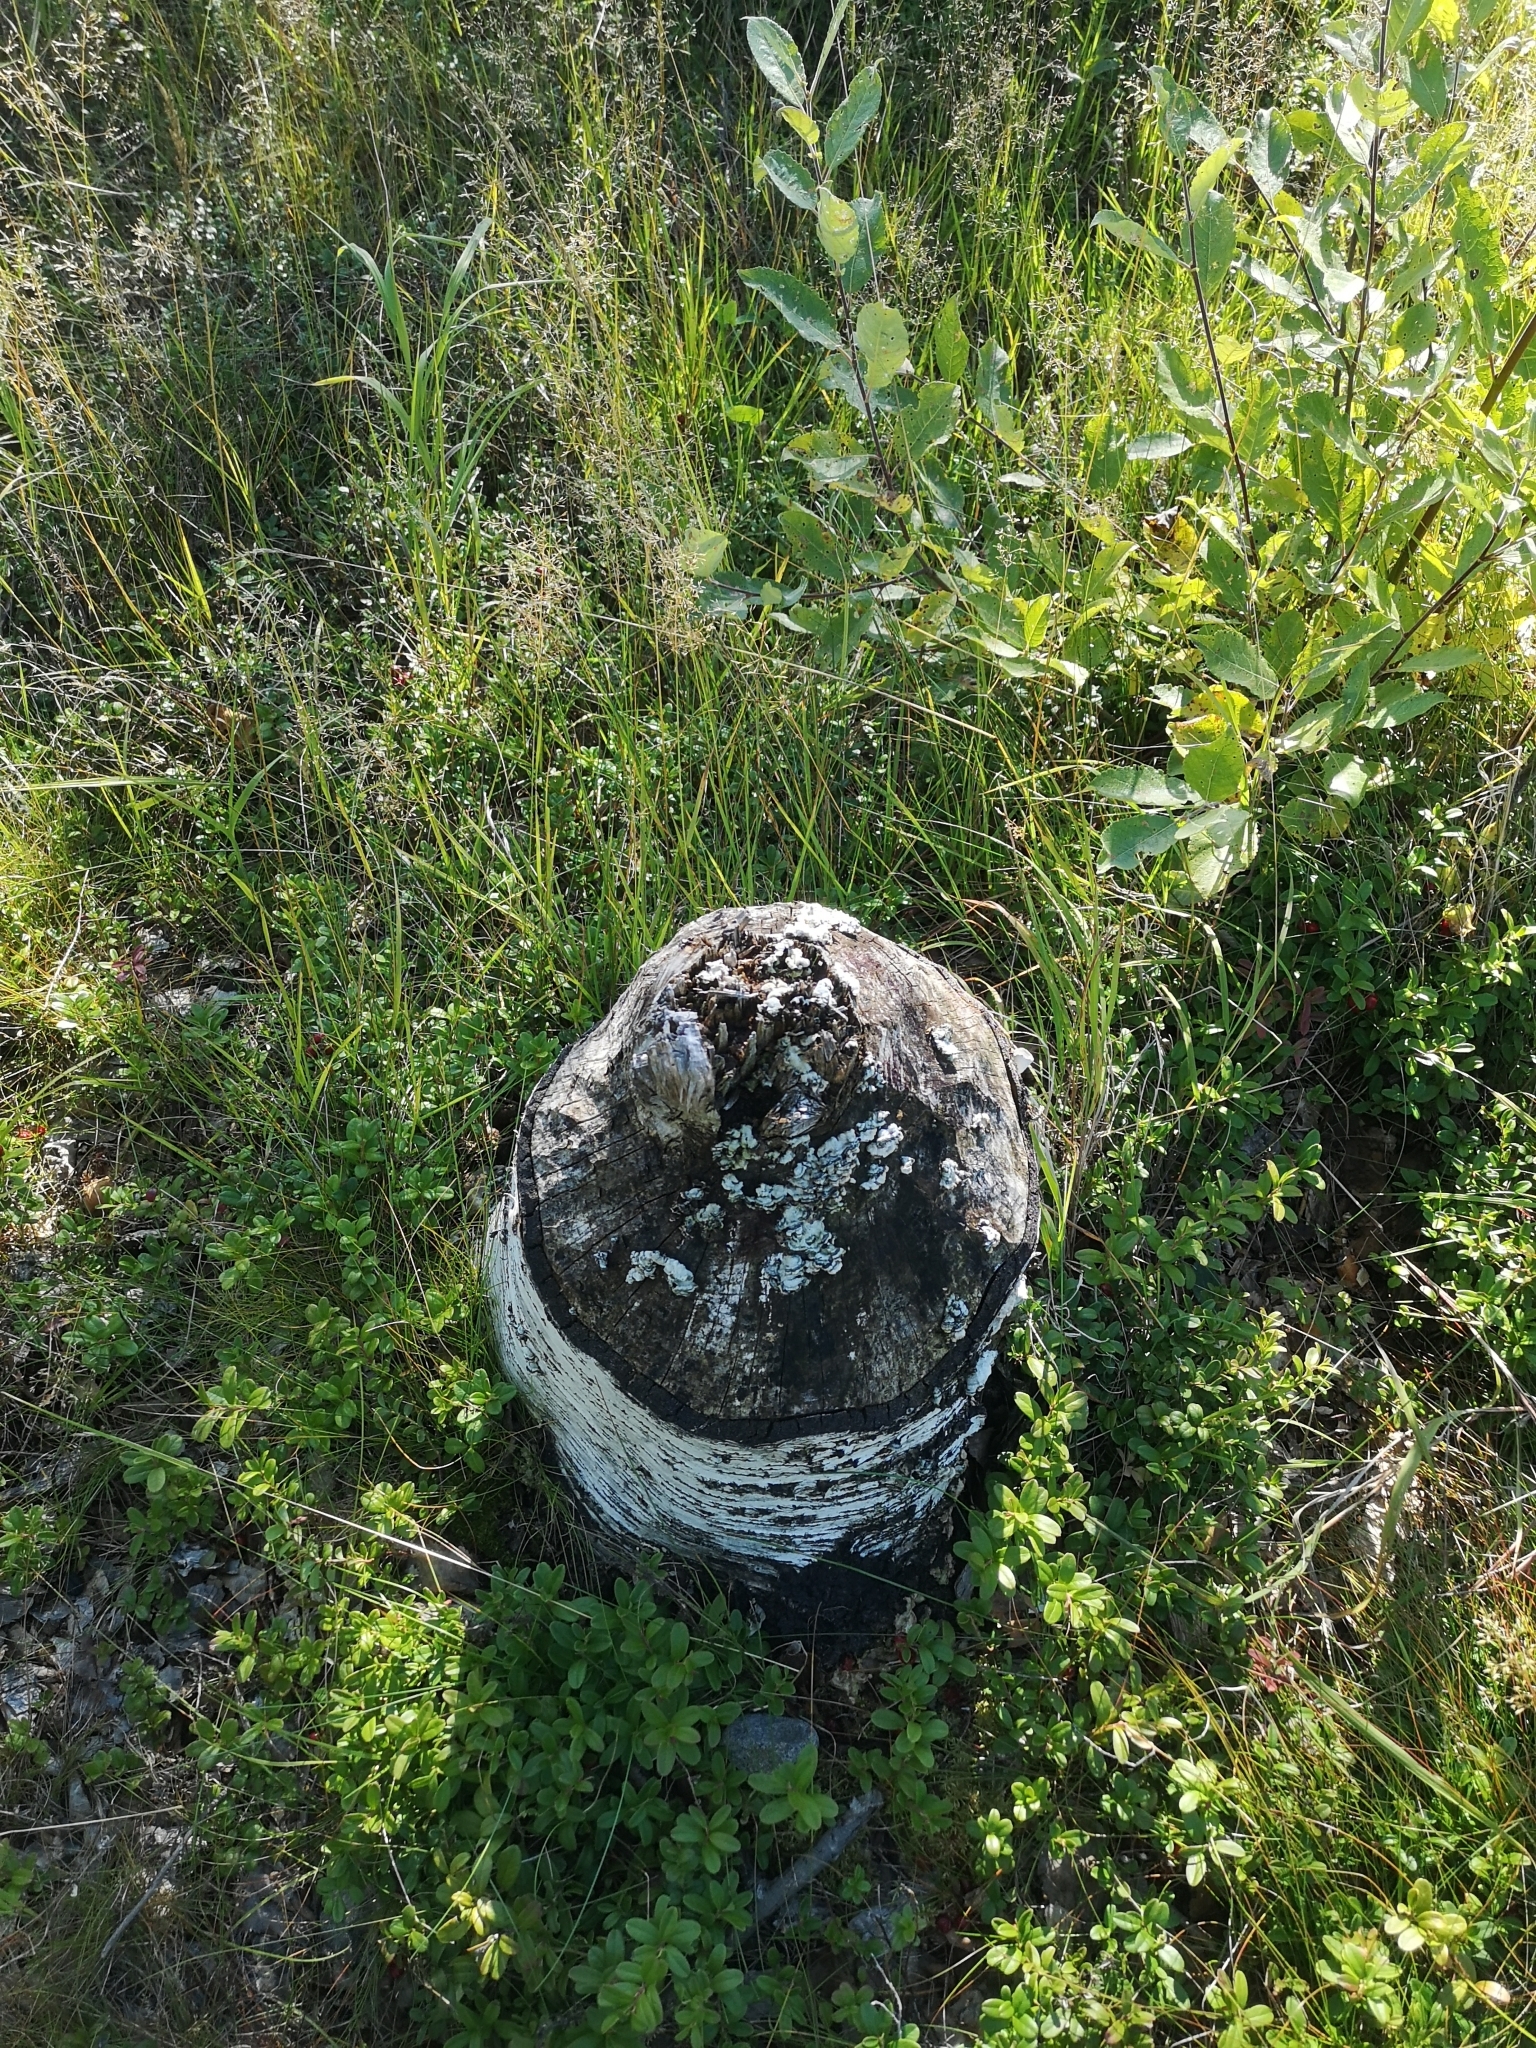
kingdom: Animalia
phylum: Chordata
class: Mammalia
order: Rodentia
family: Castoridae
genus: Castor
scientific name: Castor fiber
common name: Eurasian beaver
